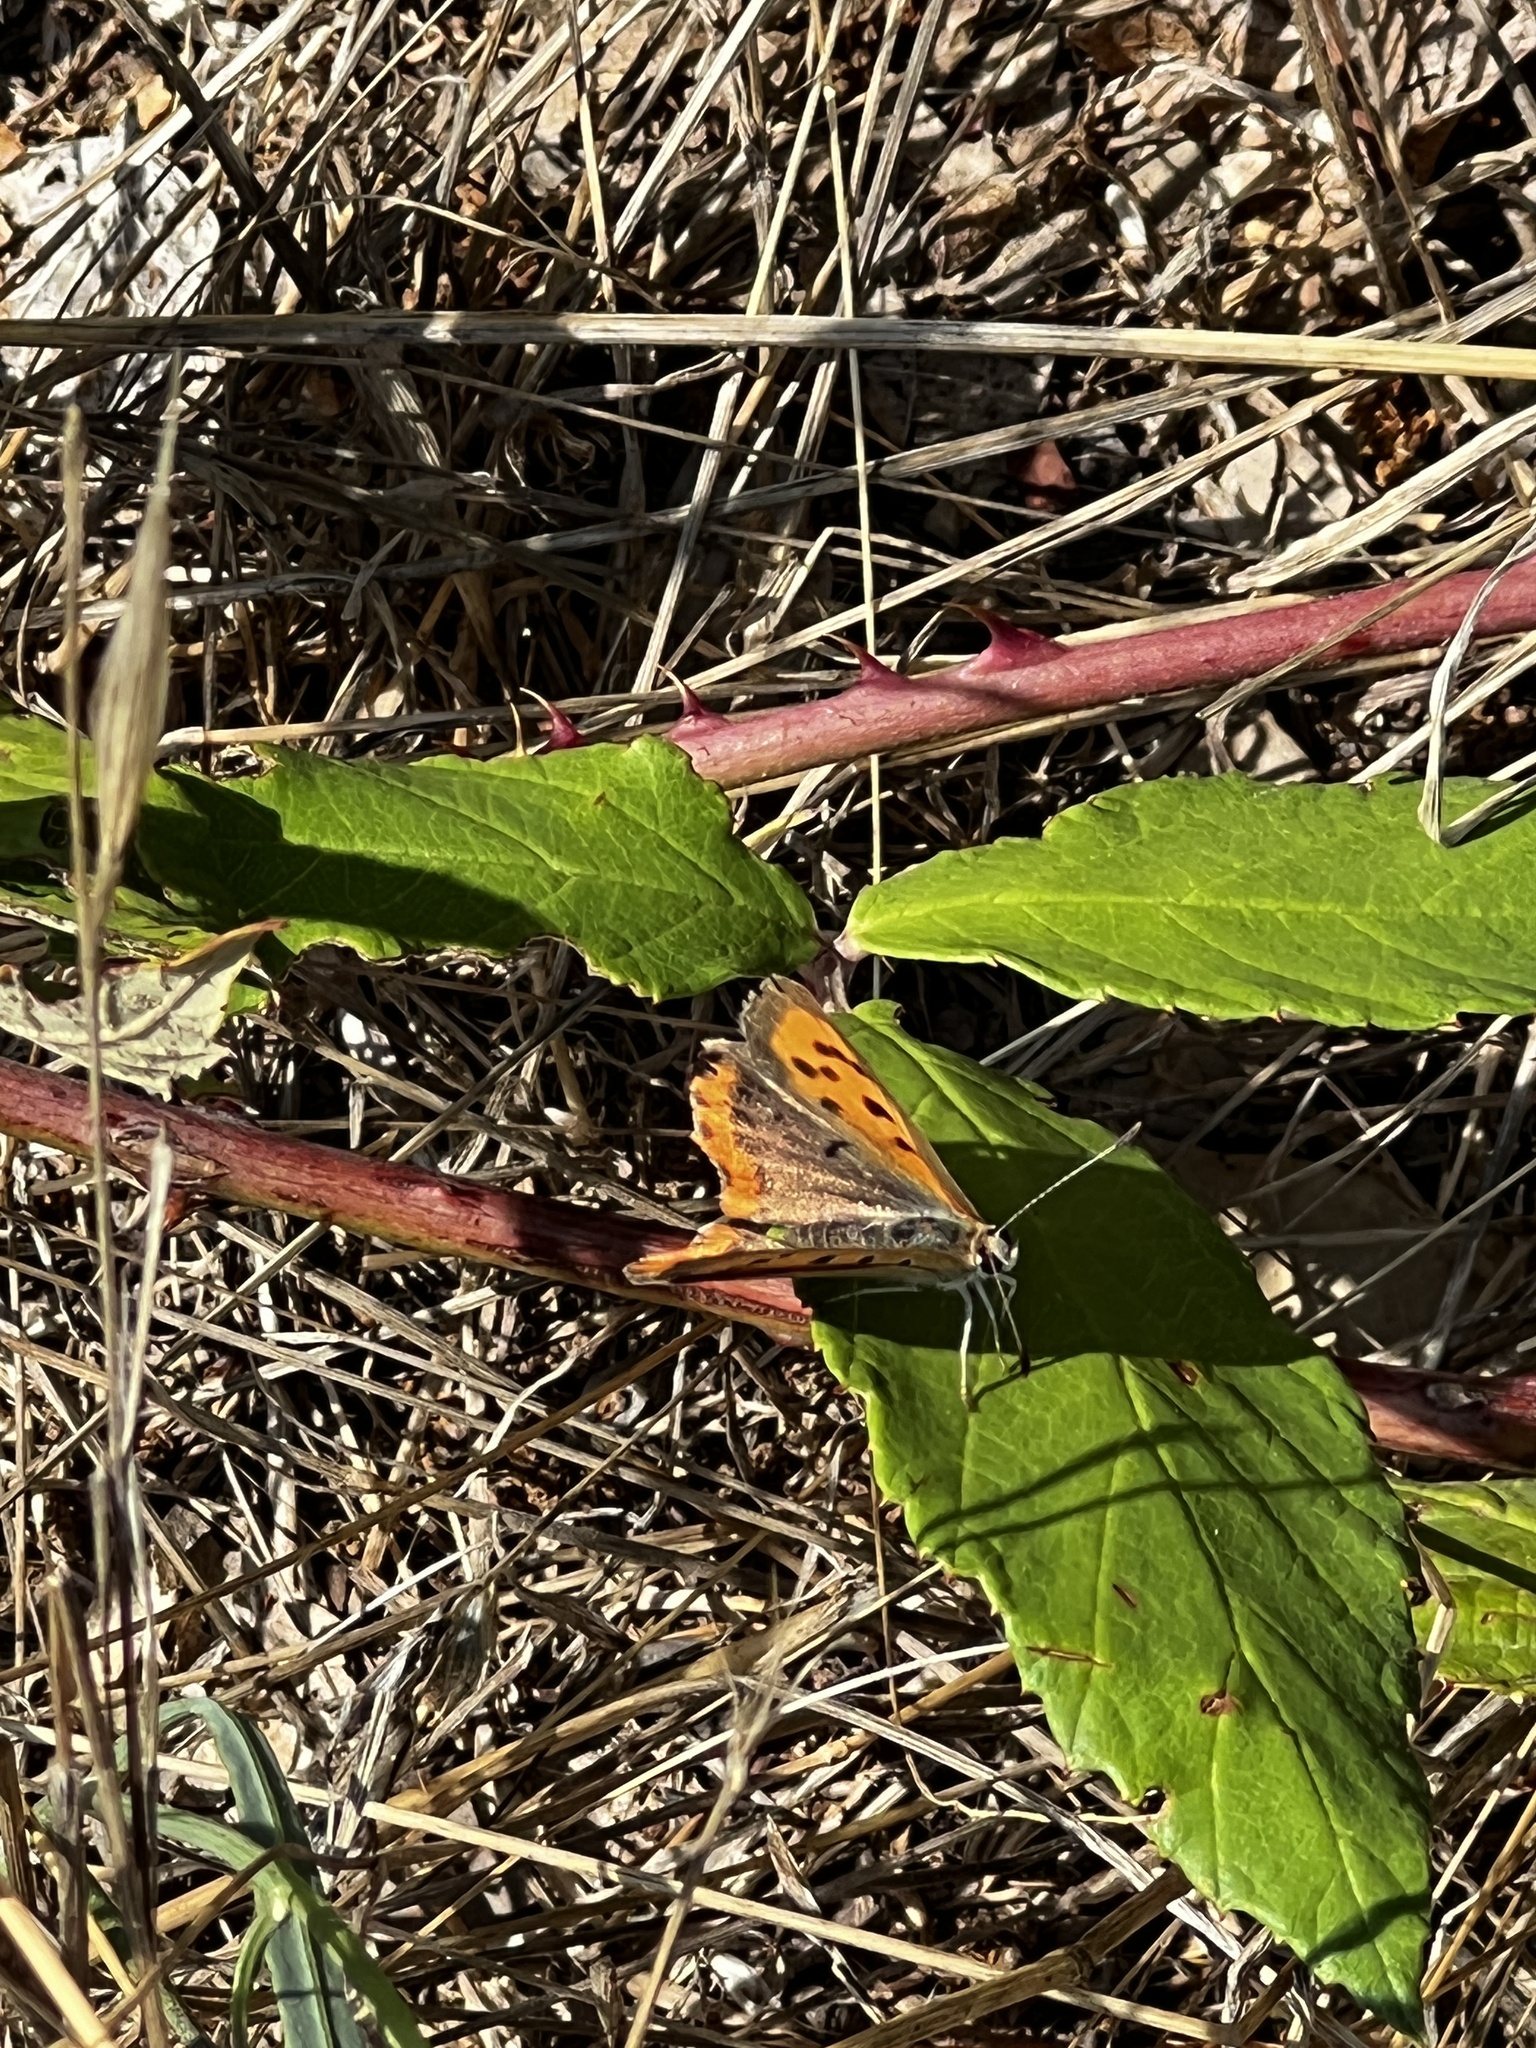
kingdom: Animalia
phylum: Arthropoda
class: Insecta
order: Lepidoptera
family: Lycaenidae
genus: Lycaena
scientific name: Lycaena phlaeas
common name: Small copper
